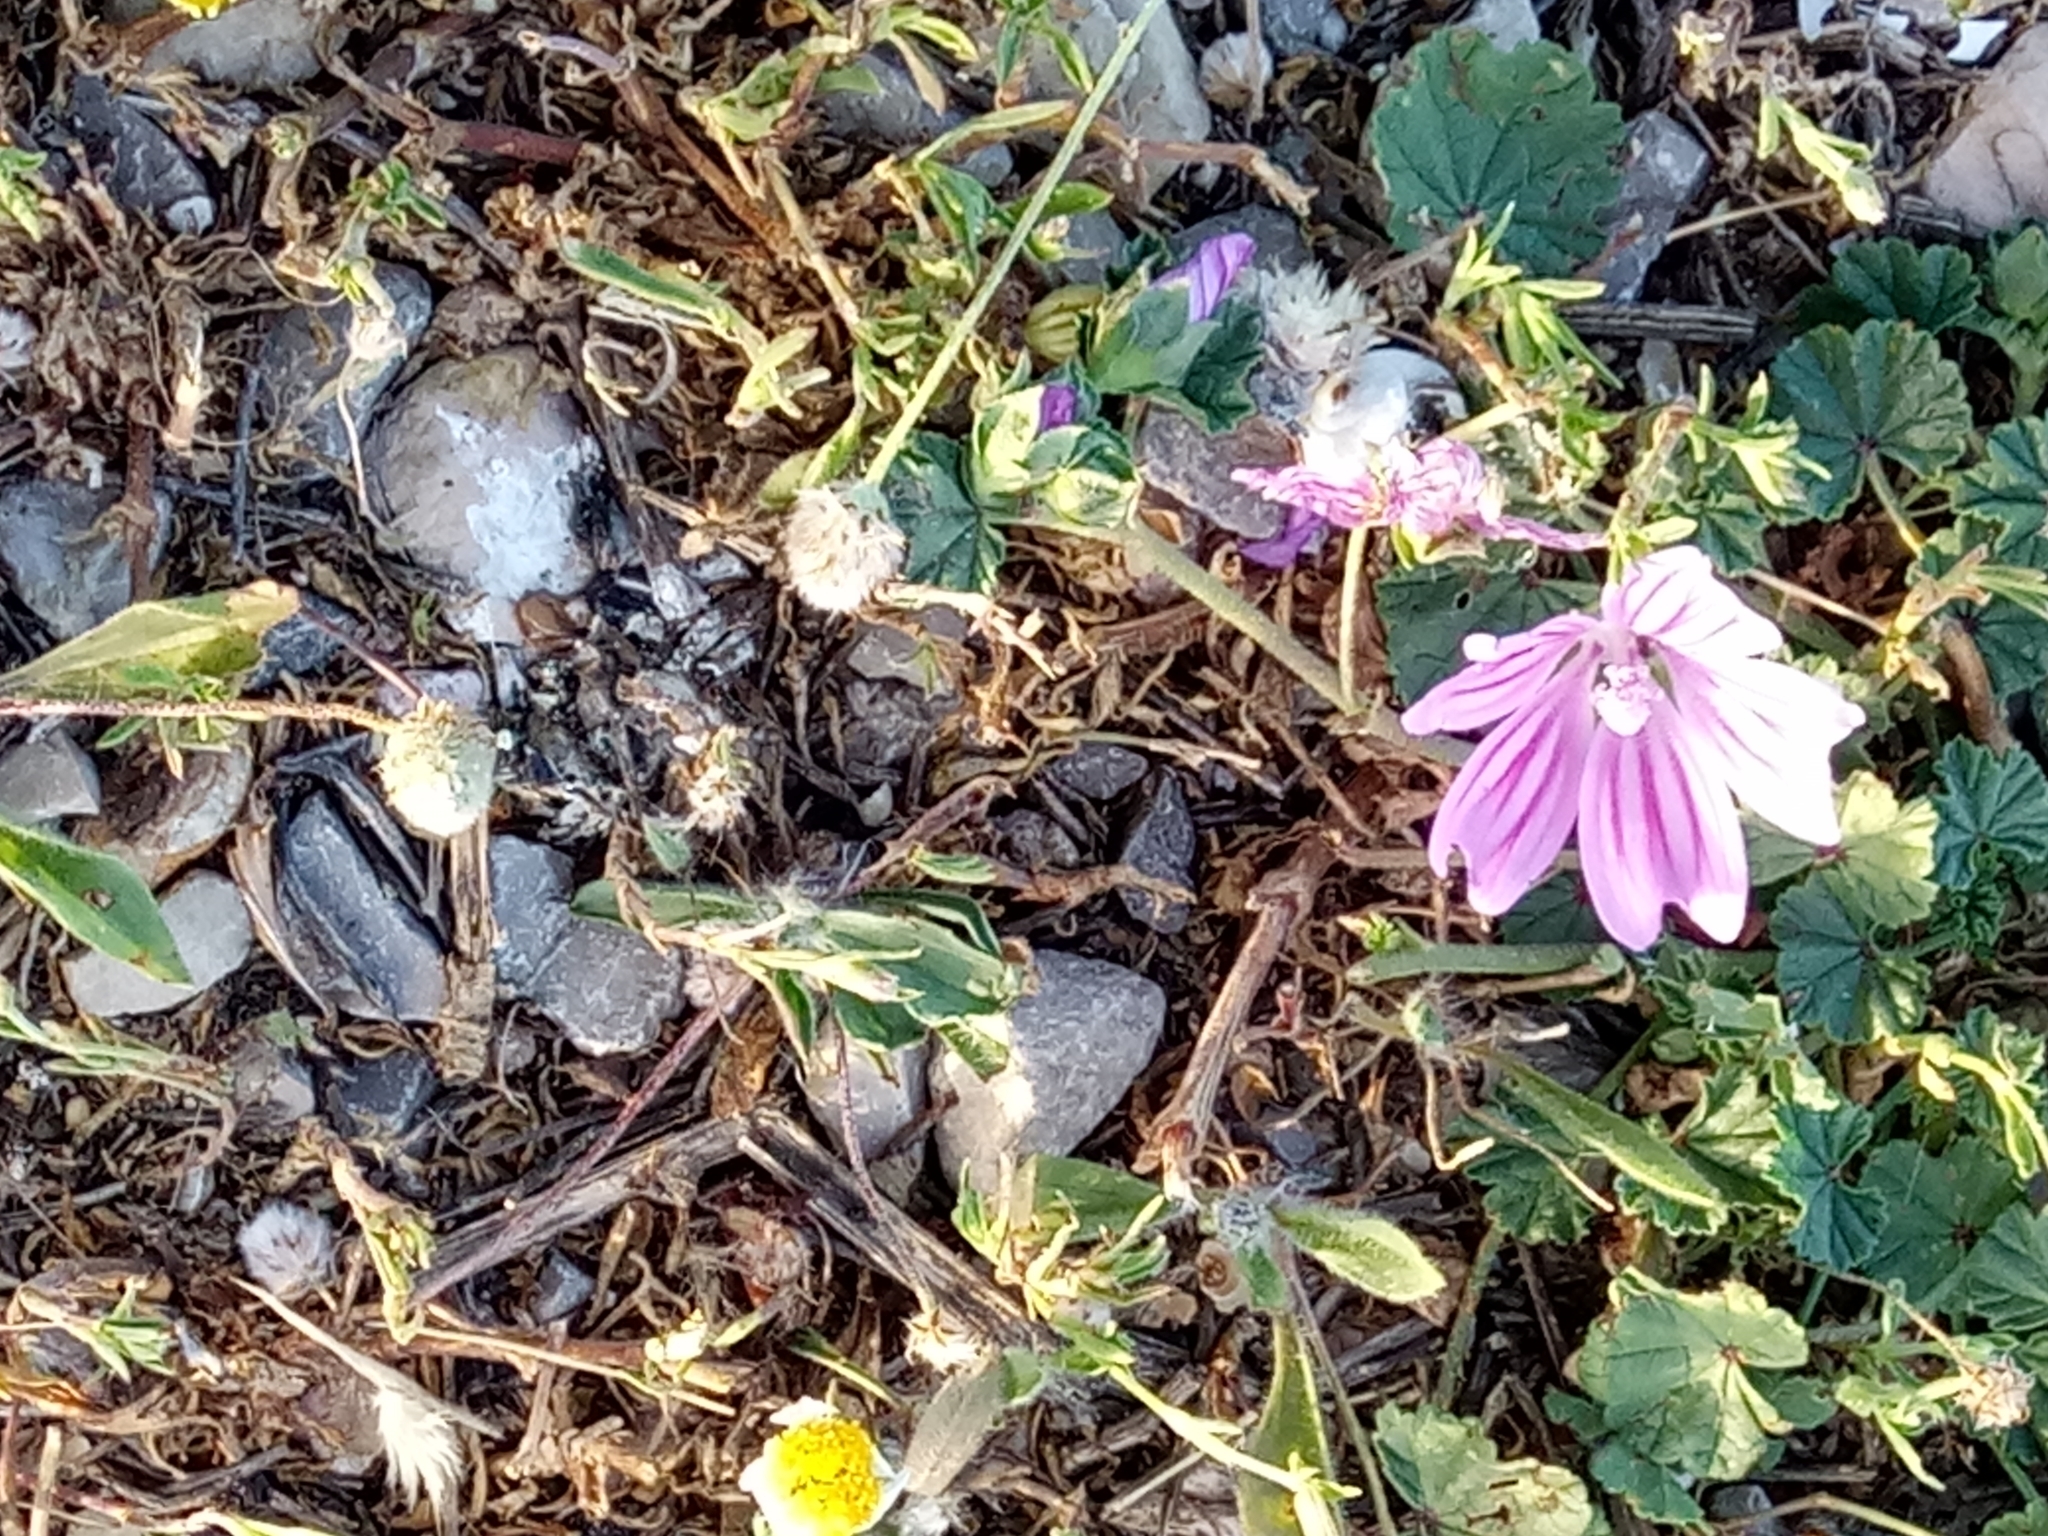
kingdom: Plantae
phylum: Tracheophyta
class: Magnoliopsida
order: Malvales
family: Malvaceae
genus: Malva
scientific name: Malva sylvestris
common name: Common mallow
